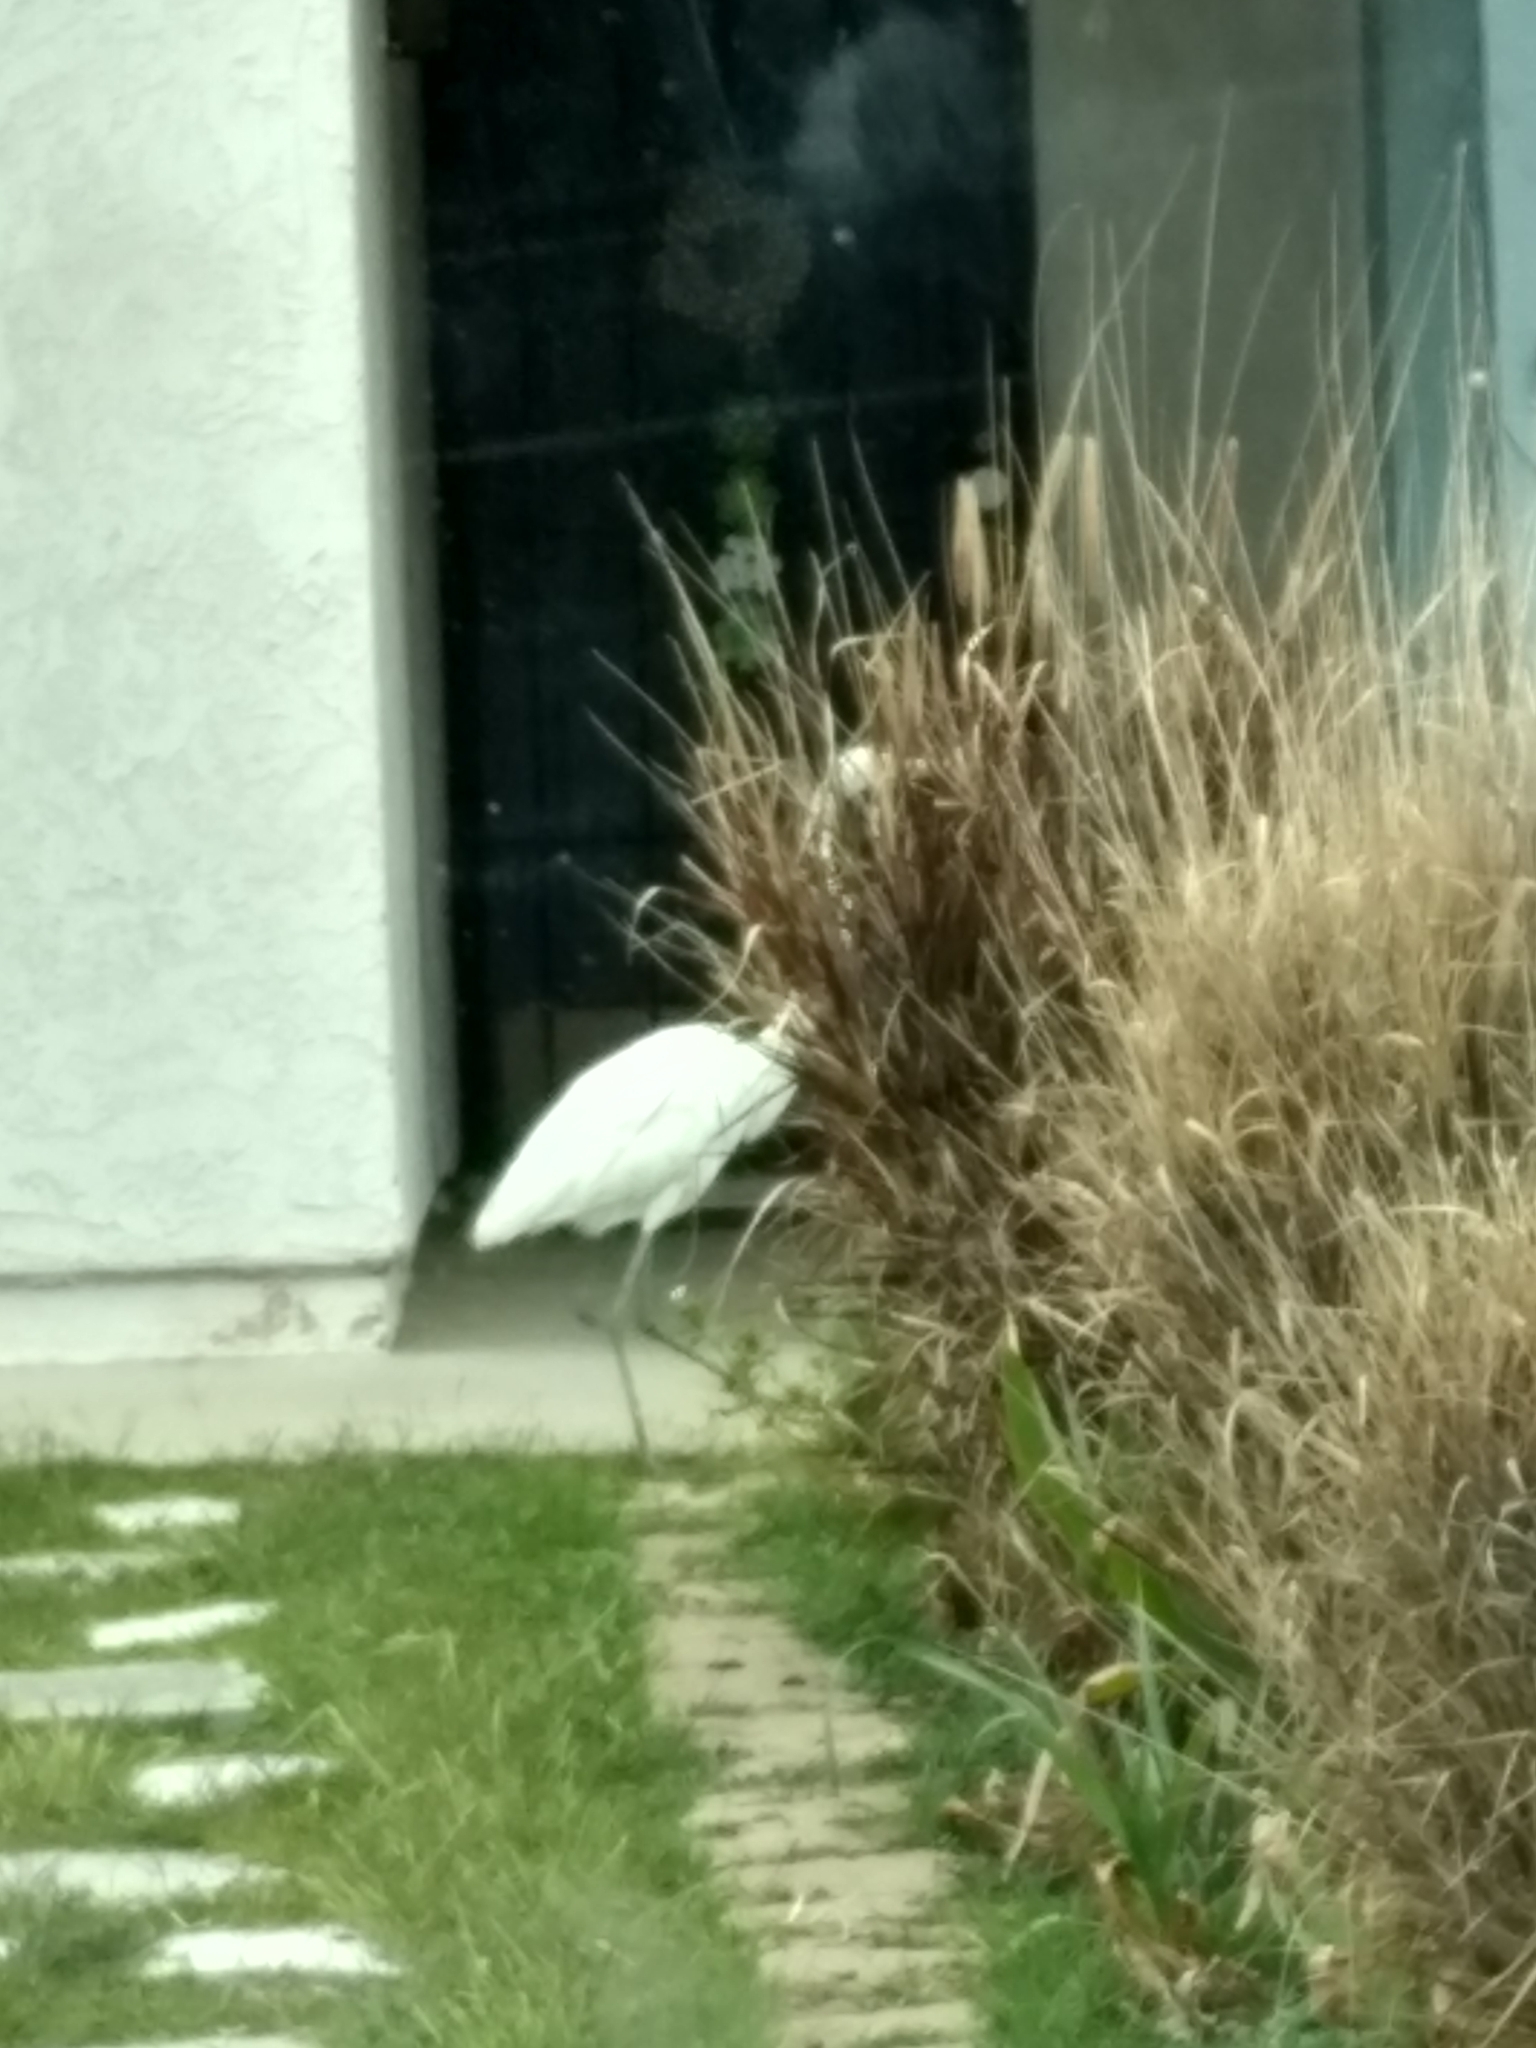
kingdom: Animalia
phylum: Chordata
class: Aves
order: Pelecaniformes
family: Ardeidae
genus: Ardea
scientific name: Ardea alba
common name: Great egret
